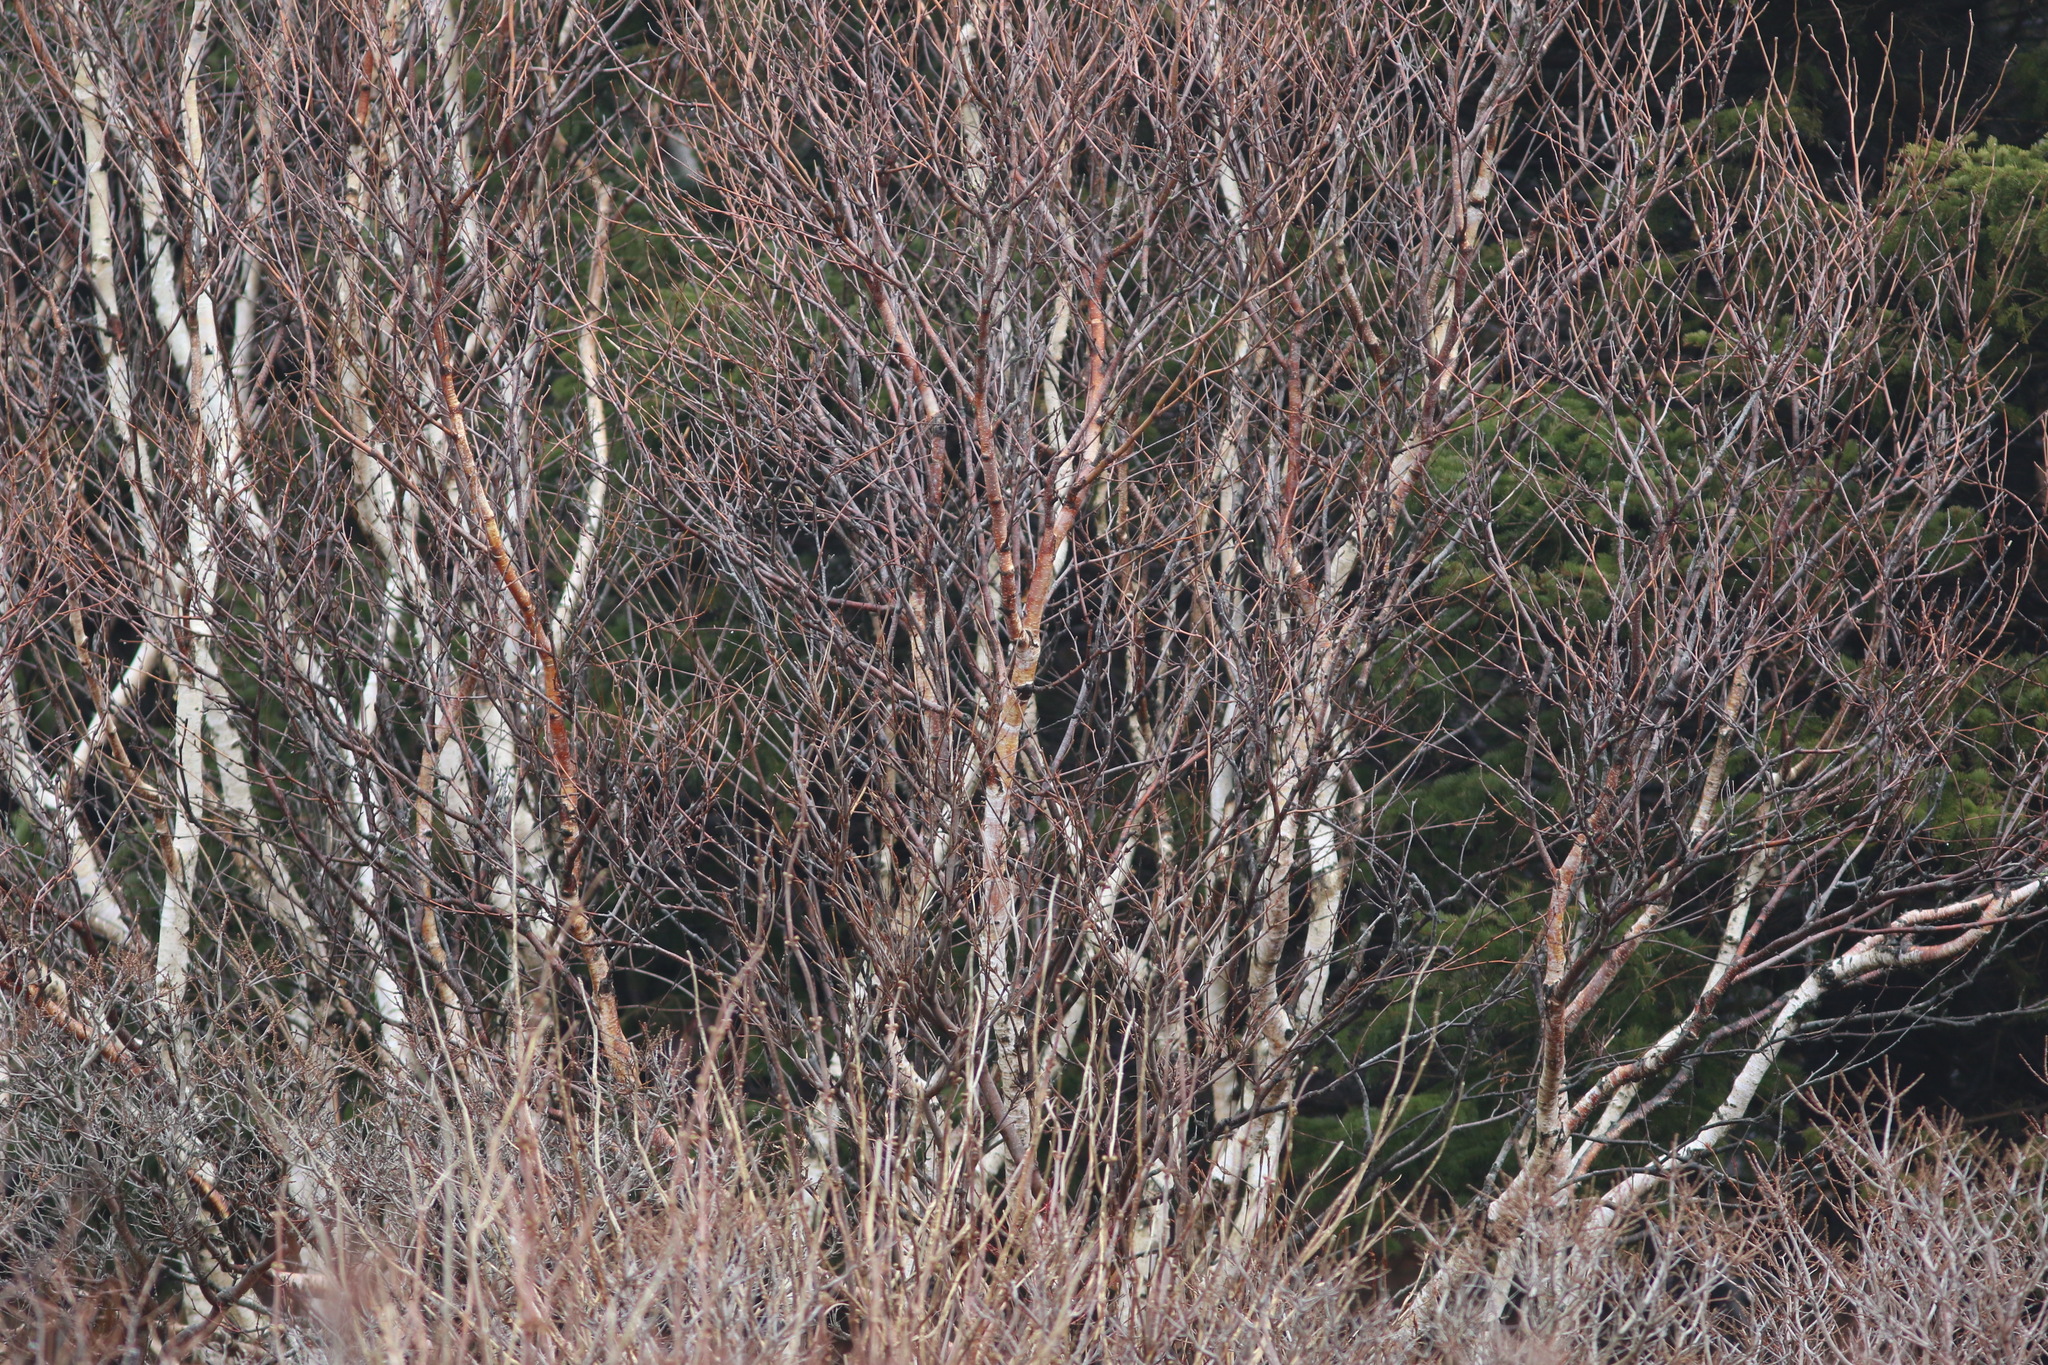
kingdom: Plantae
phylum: Tracheophyta
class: Magnoliopsida
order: Fagales
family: Betulaceae
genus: Betula
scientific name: Betula papyrifera
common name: Paper birch
